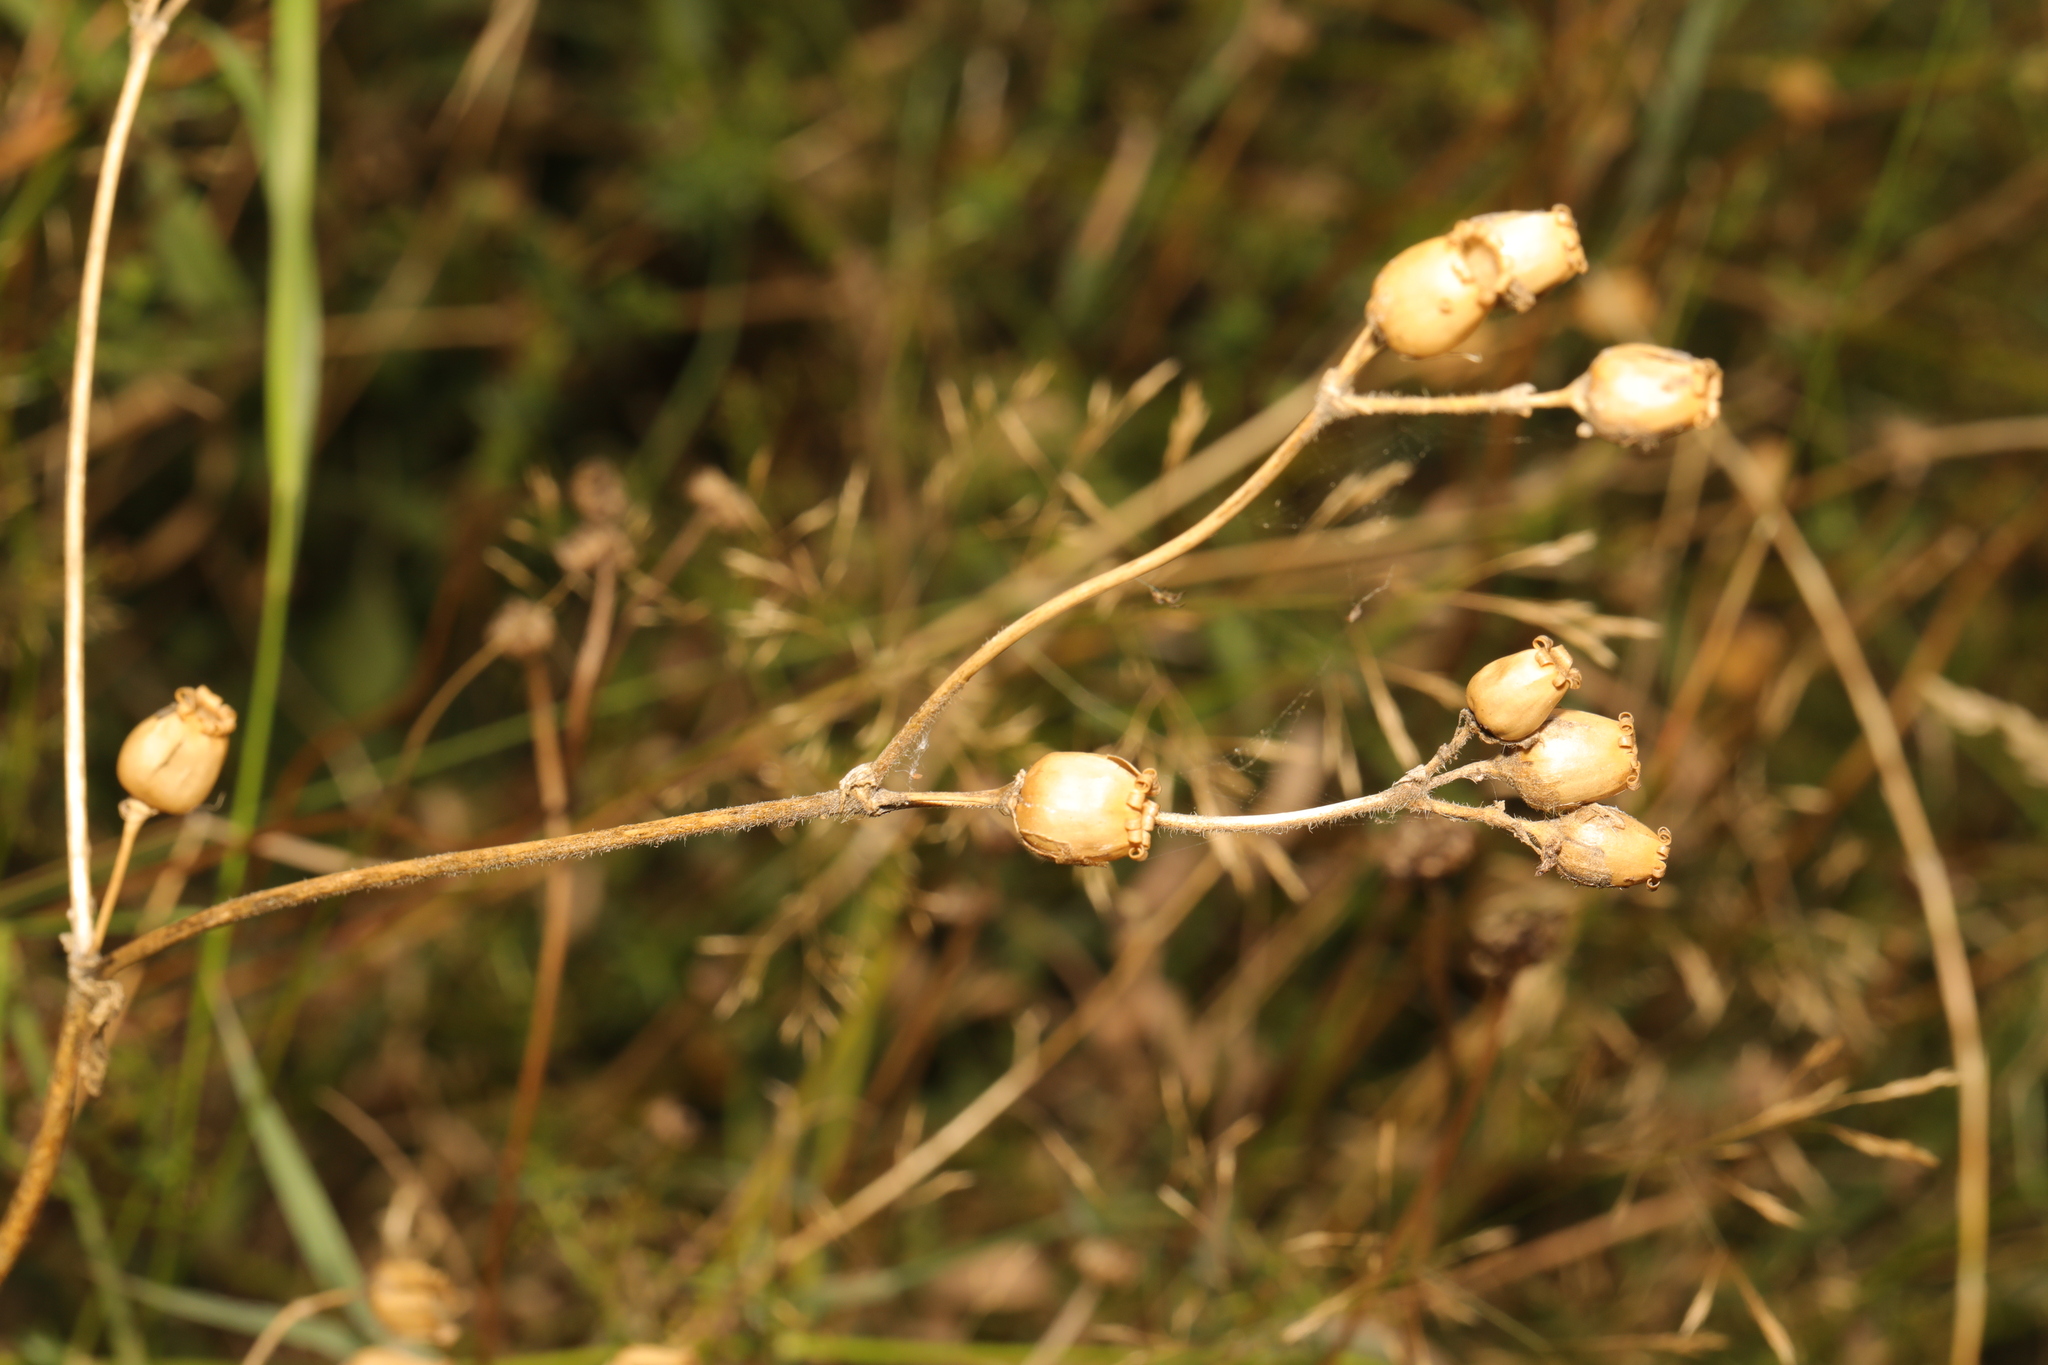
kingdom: Plantae
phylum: Tracheophyta
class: Magnoliopsida
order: Caryophyllales
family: Caryophyllaceae
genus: Silene
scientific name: Silene dioica
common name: Red campion
